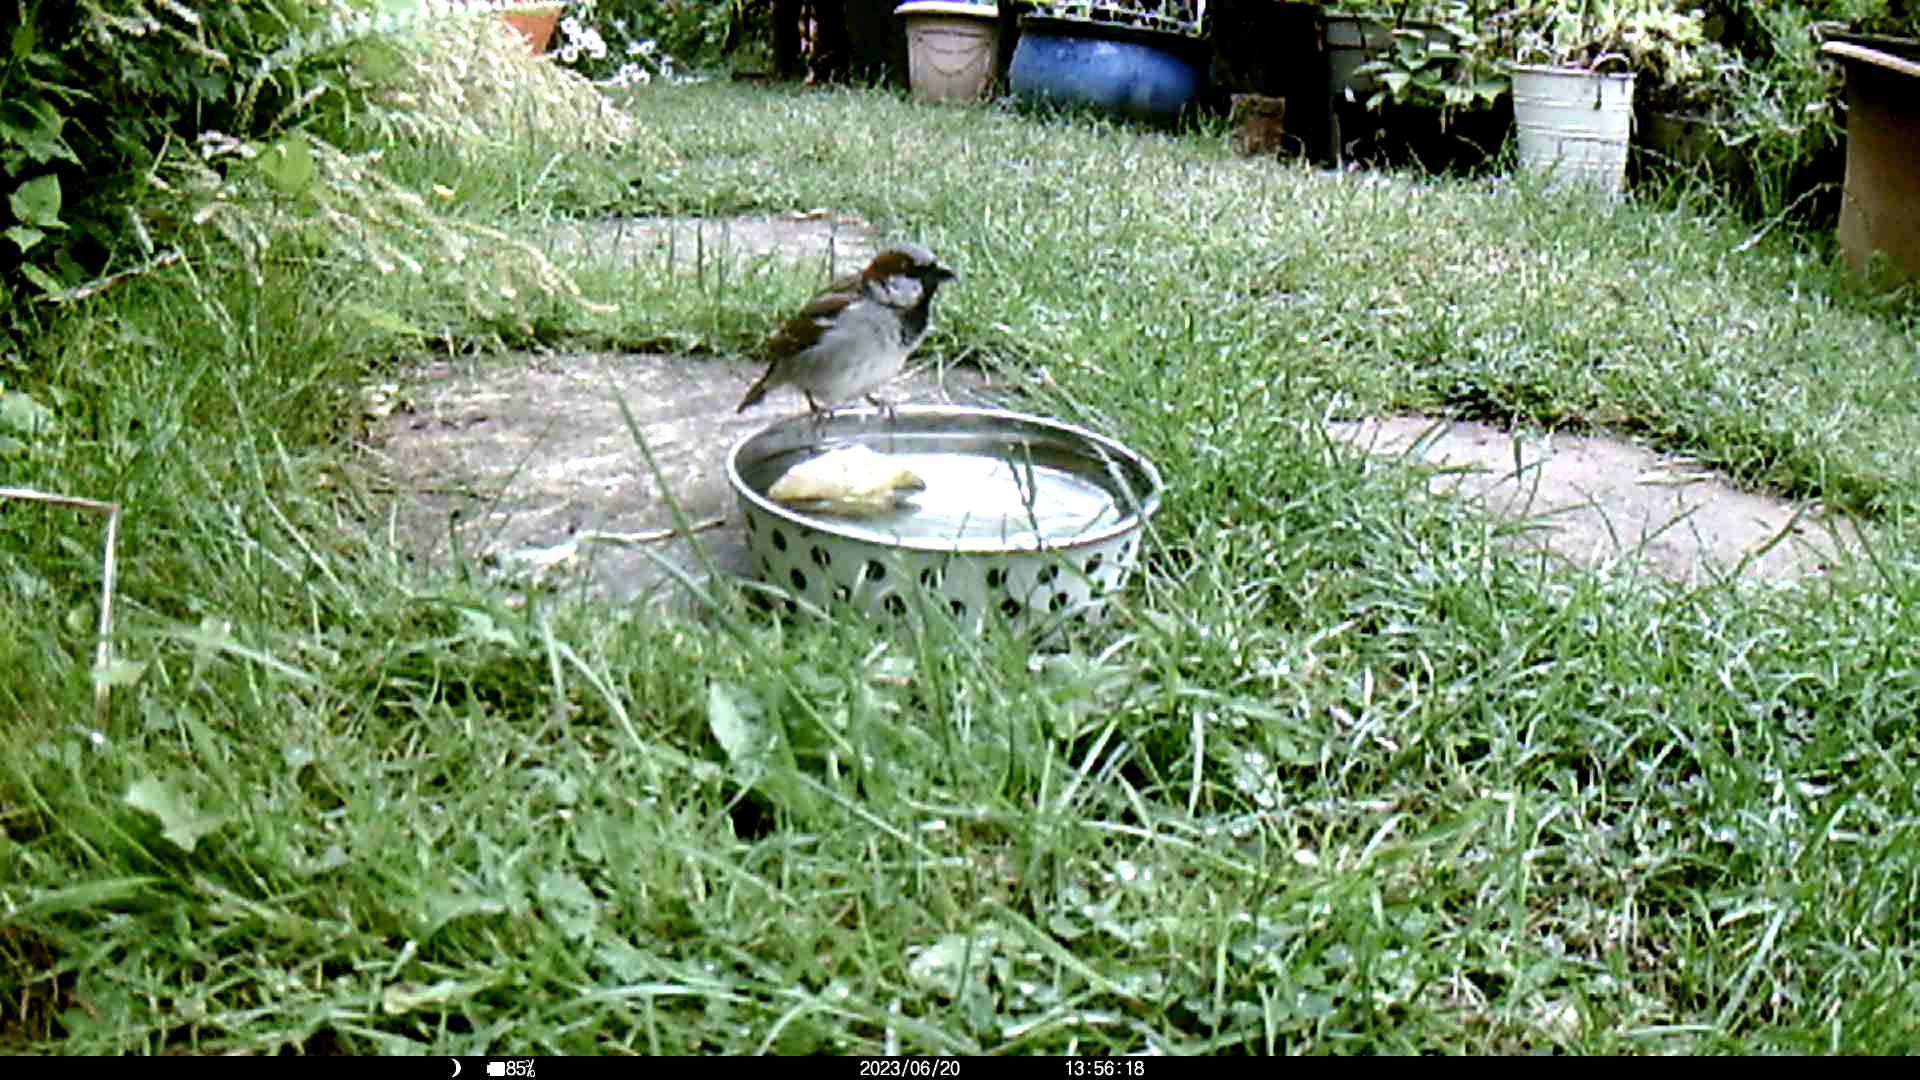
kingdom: Animalia
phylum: Chordata
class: Aves
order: Passeriformes
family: Passeridae
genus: Passer
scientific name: Passer domesticus
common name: House sparrow
